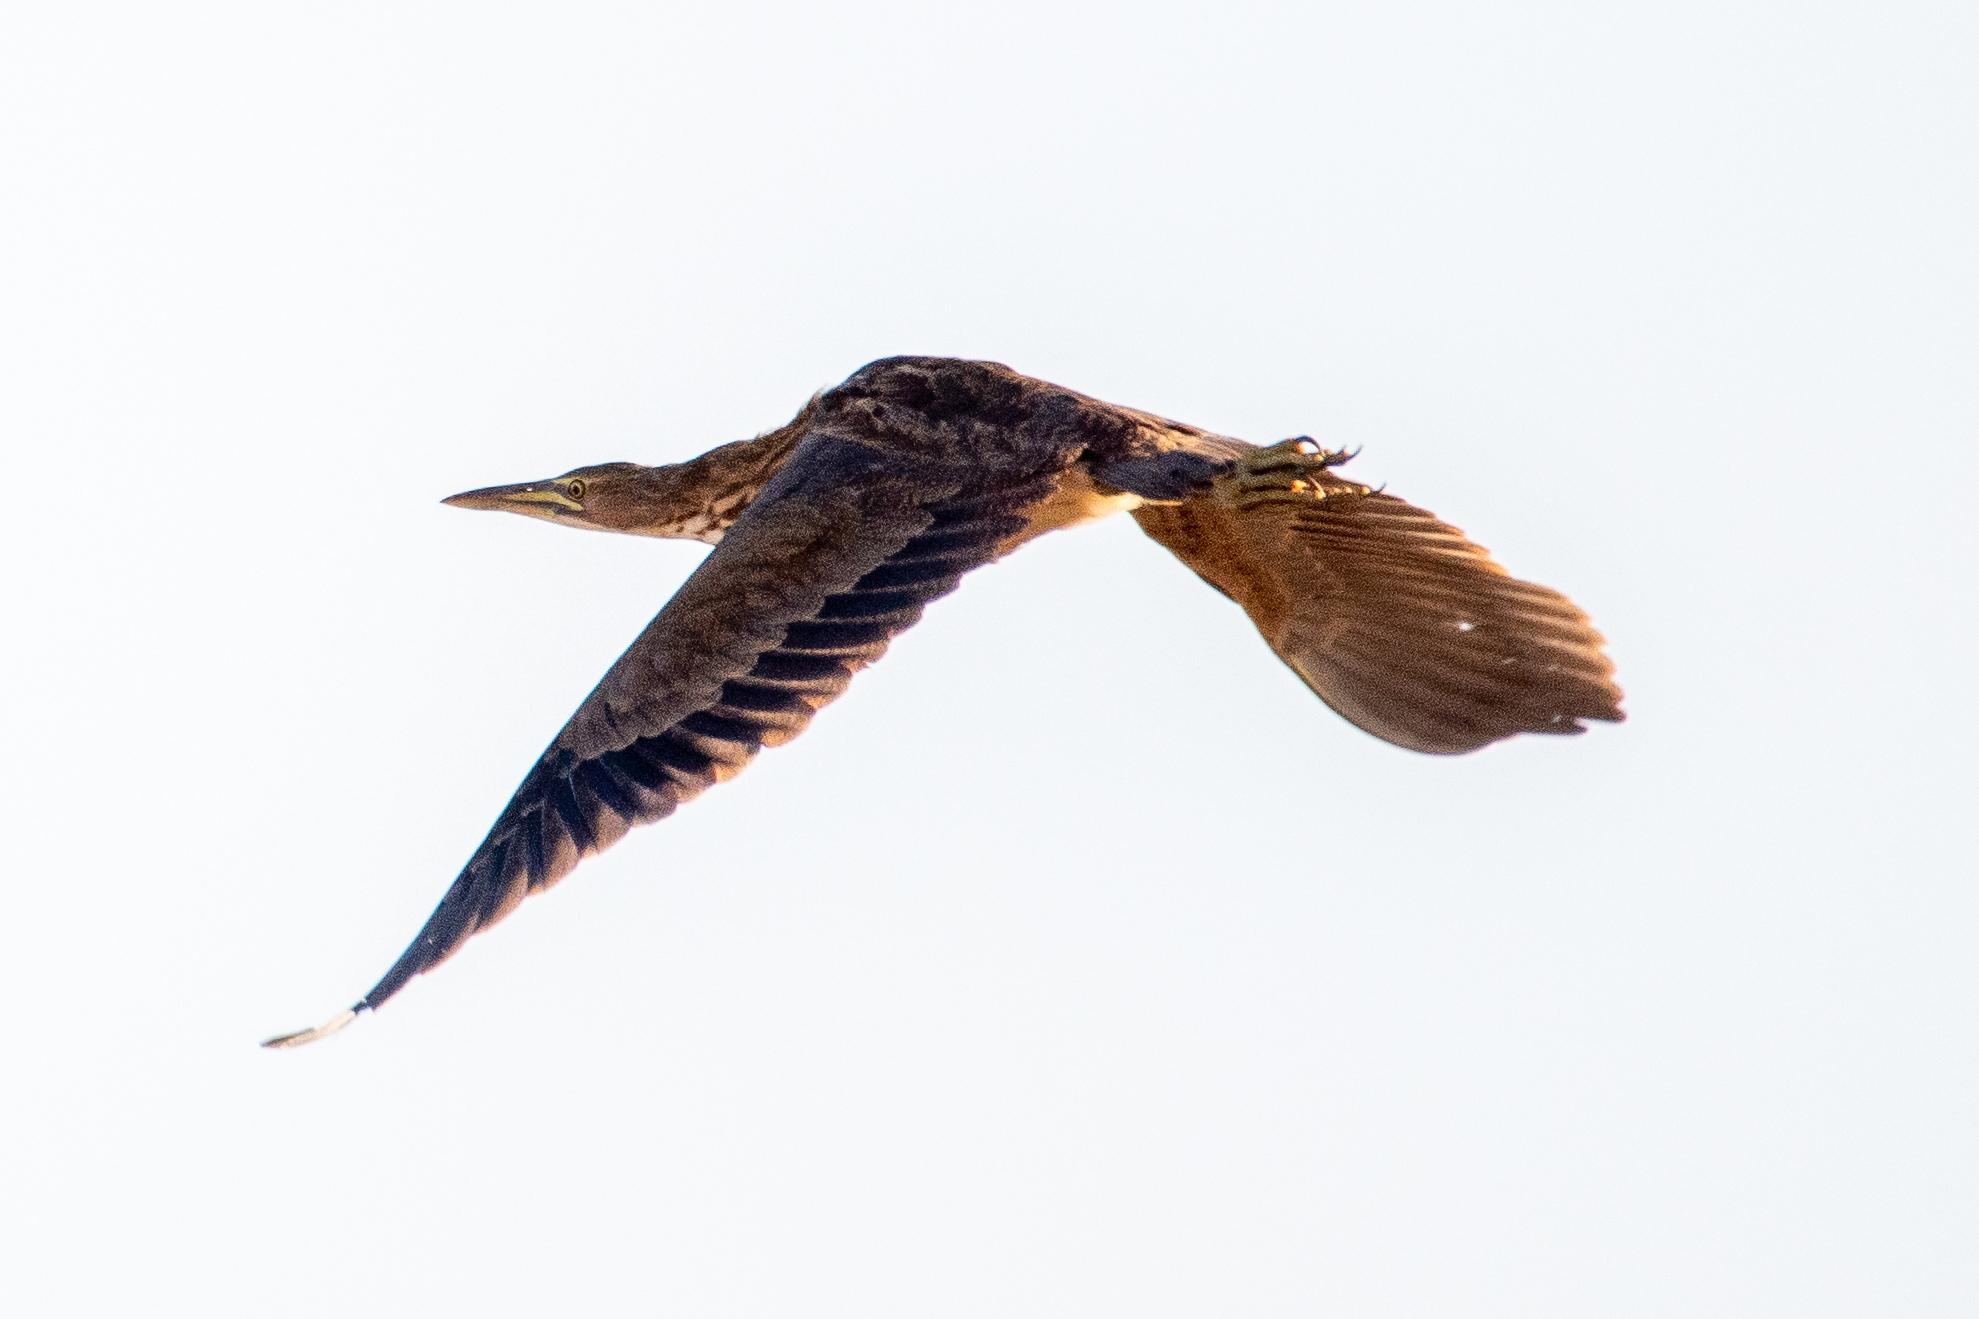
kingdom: Animalia
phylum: Chordata
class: Aves
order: Pelecaniformes
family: Ardeidae
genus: Botaurus
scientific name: Botaurus lentiginosus
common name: American bittern
